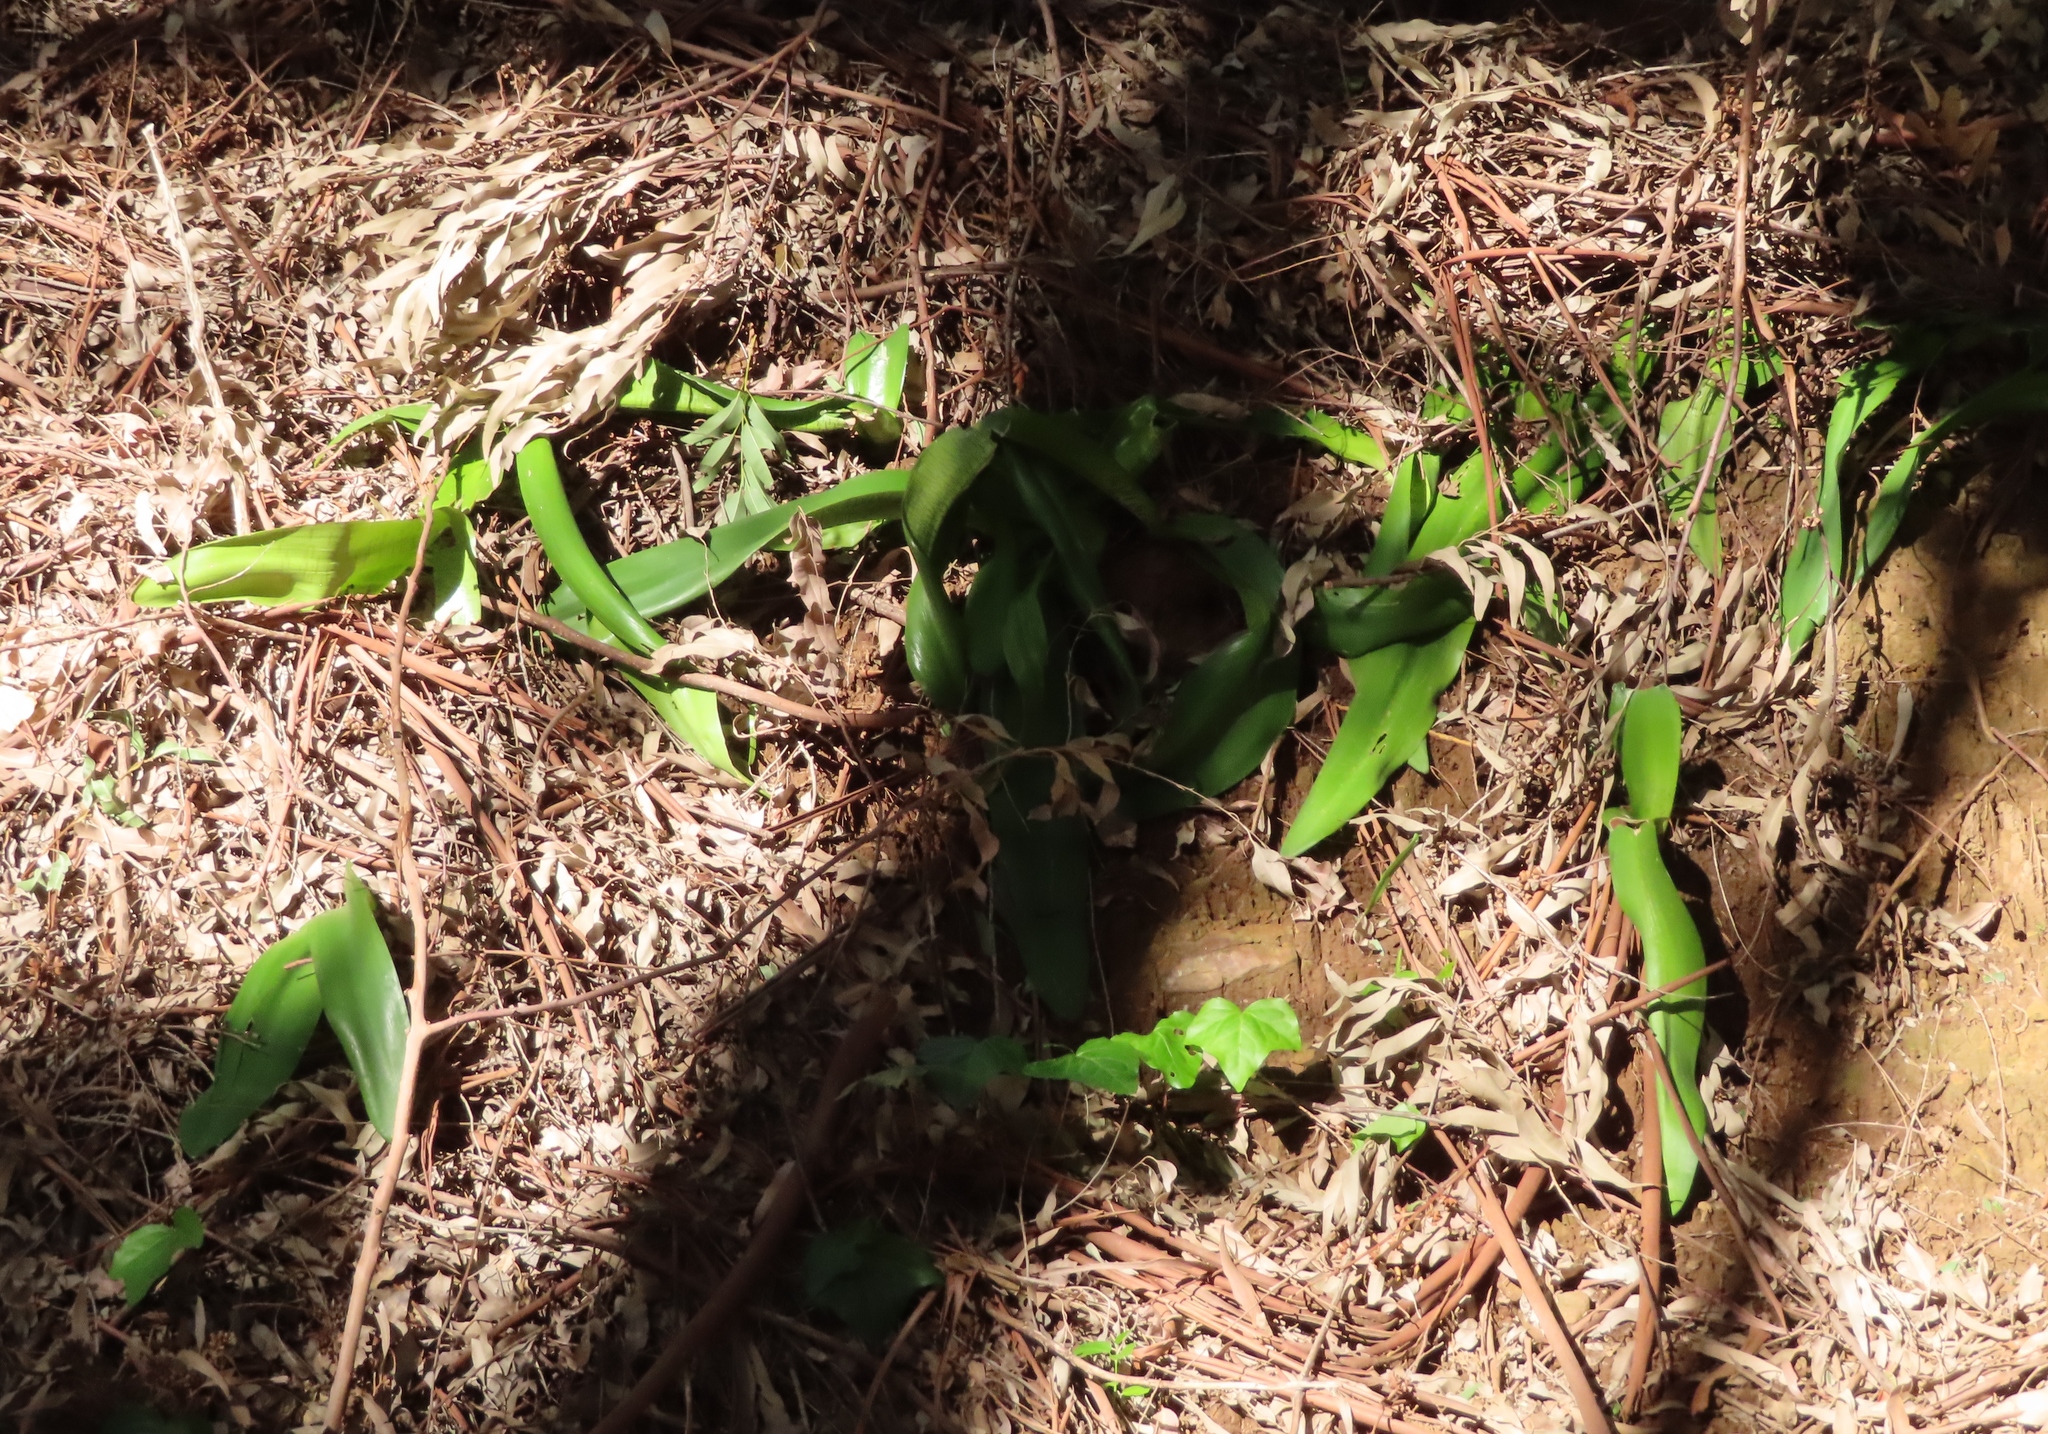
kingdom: Plantae
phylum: Tracheophyta
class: Liliopsida
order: Asparagales
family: Amaryllidaceae
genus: Haemanthus
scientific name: Haemanthus coccineus
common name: Cape-tulip
